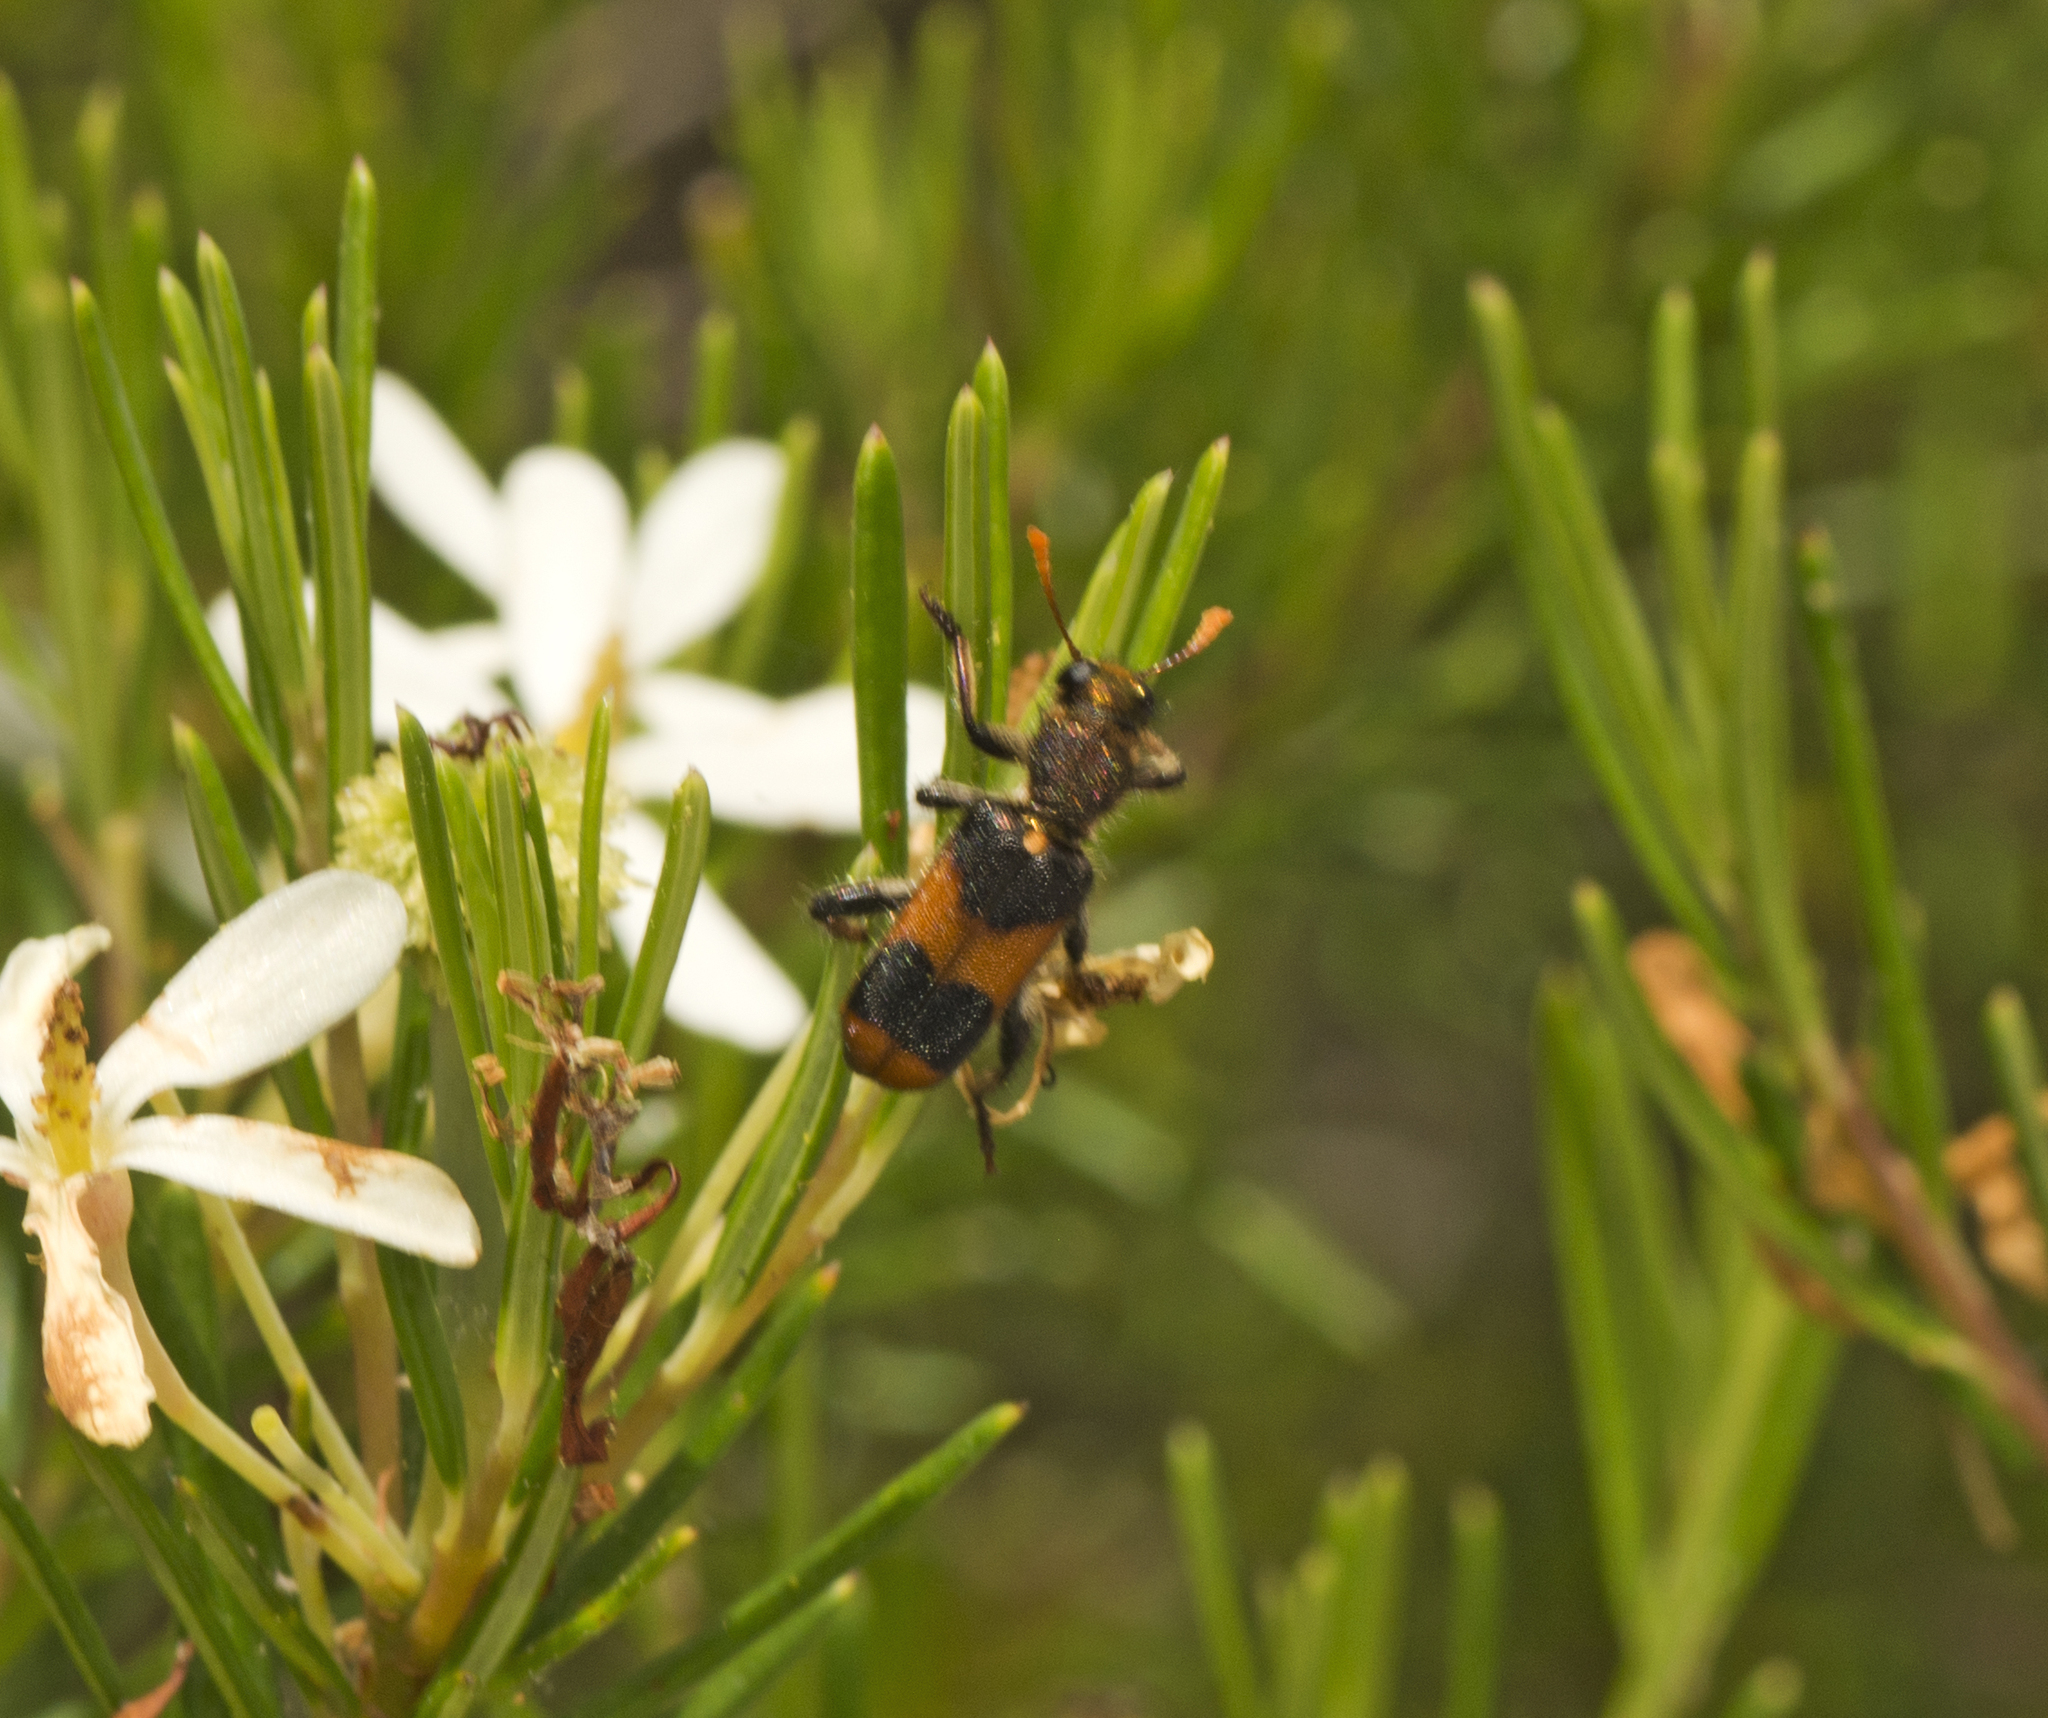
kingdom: Animalia
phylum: Arthropoda
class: Insecta
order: Coleoptera
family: Cleridae
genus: Eleale
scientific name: Eleale
